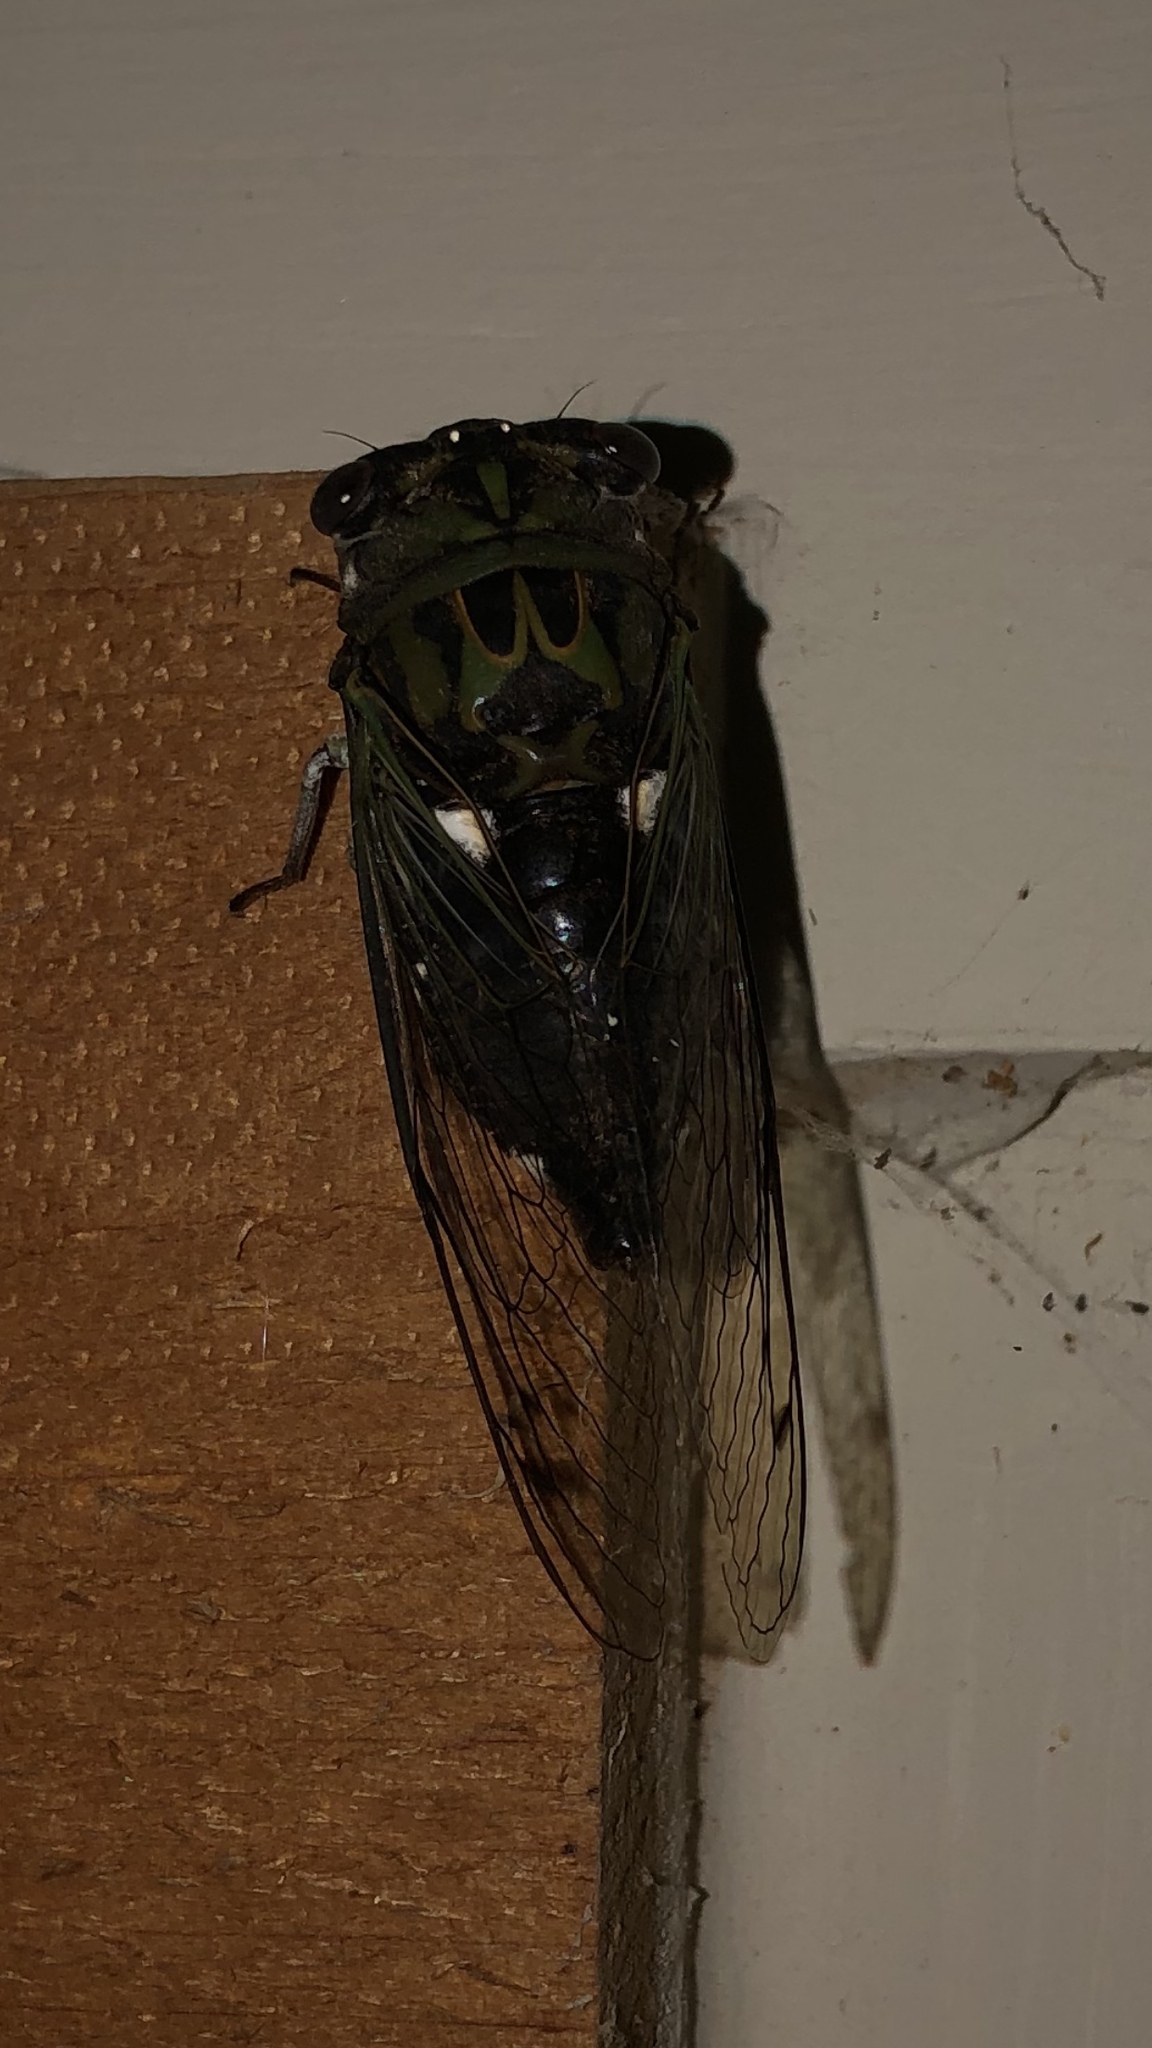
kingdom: Animalia
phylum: Arthropoda
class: Insecta
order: Hemiptera
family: Cicadidae
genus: Neotibicen
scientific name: Neotibicen pruinosus
